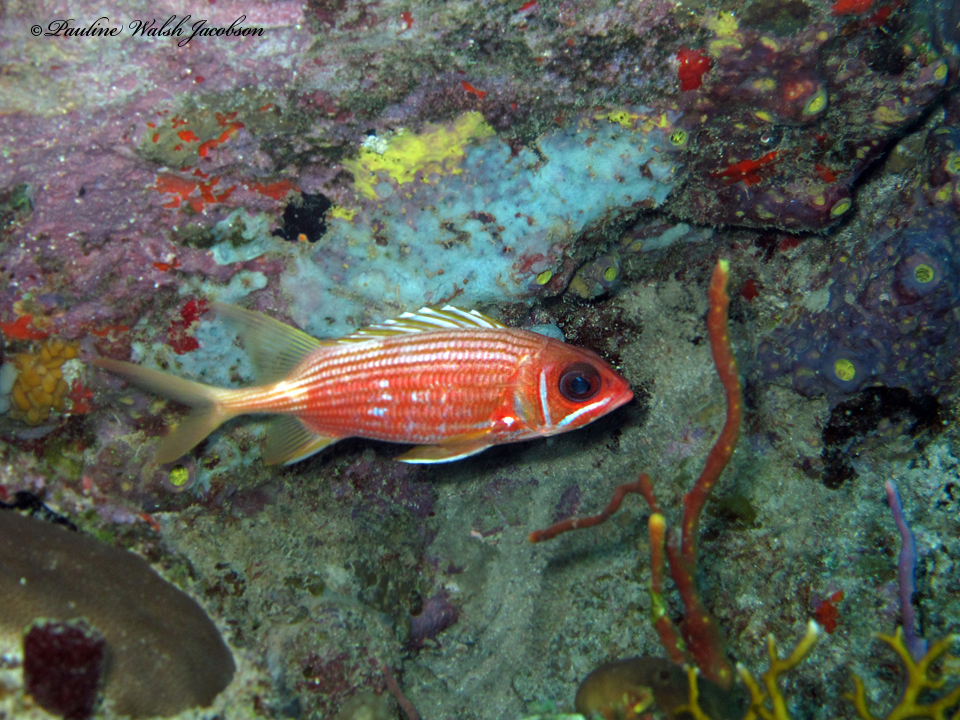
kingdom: Animalia
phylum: Chordata
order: Beryciformes
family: Holocentridae
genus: Holocentrus
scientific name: Holocentrus rufus
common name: Longspine squirrelfish
